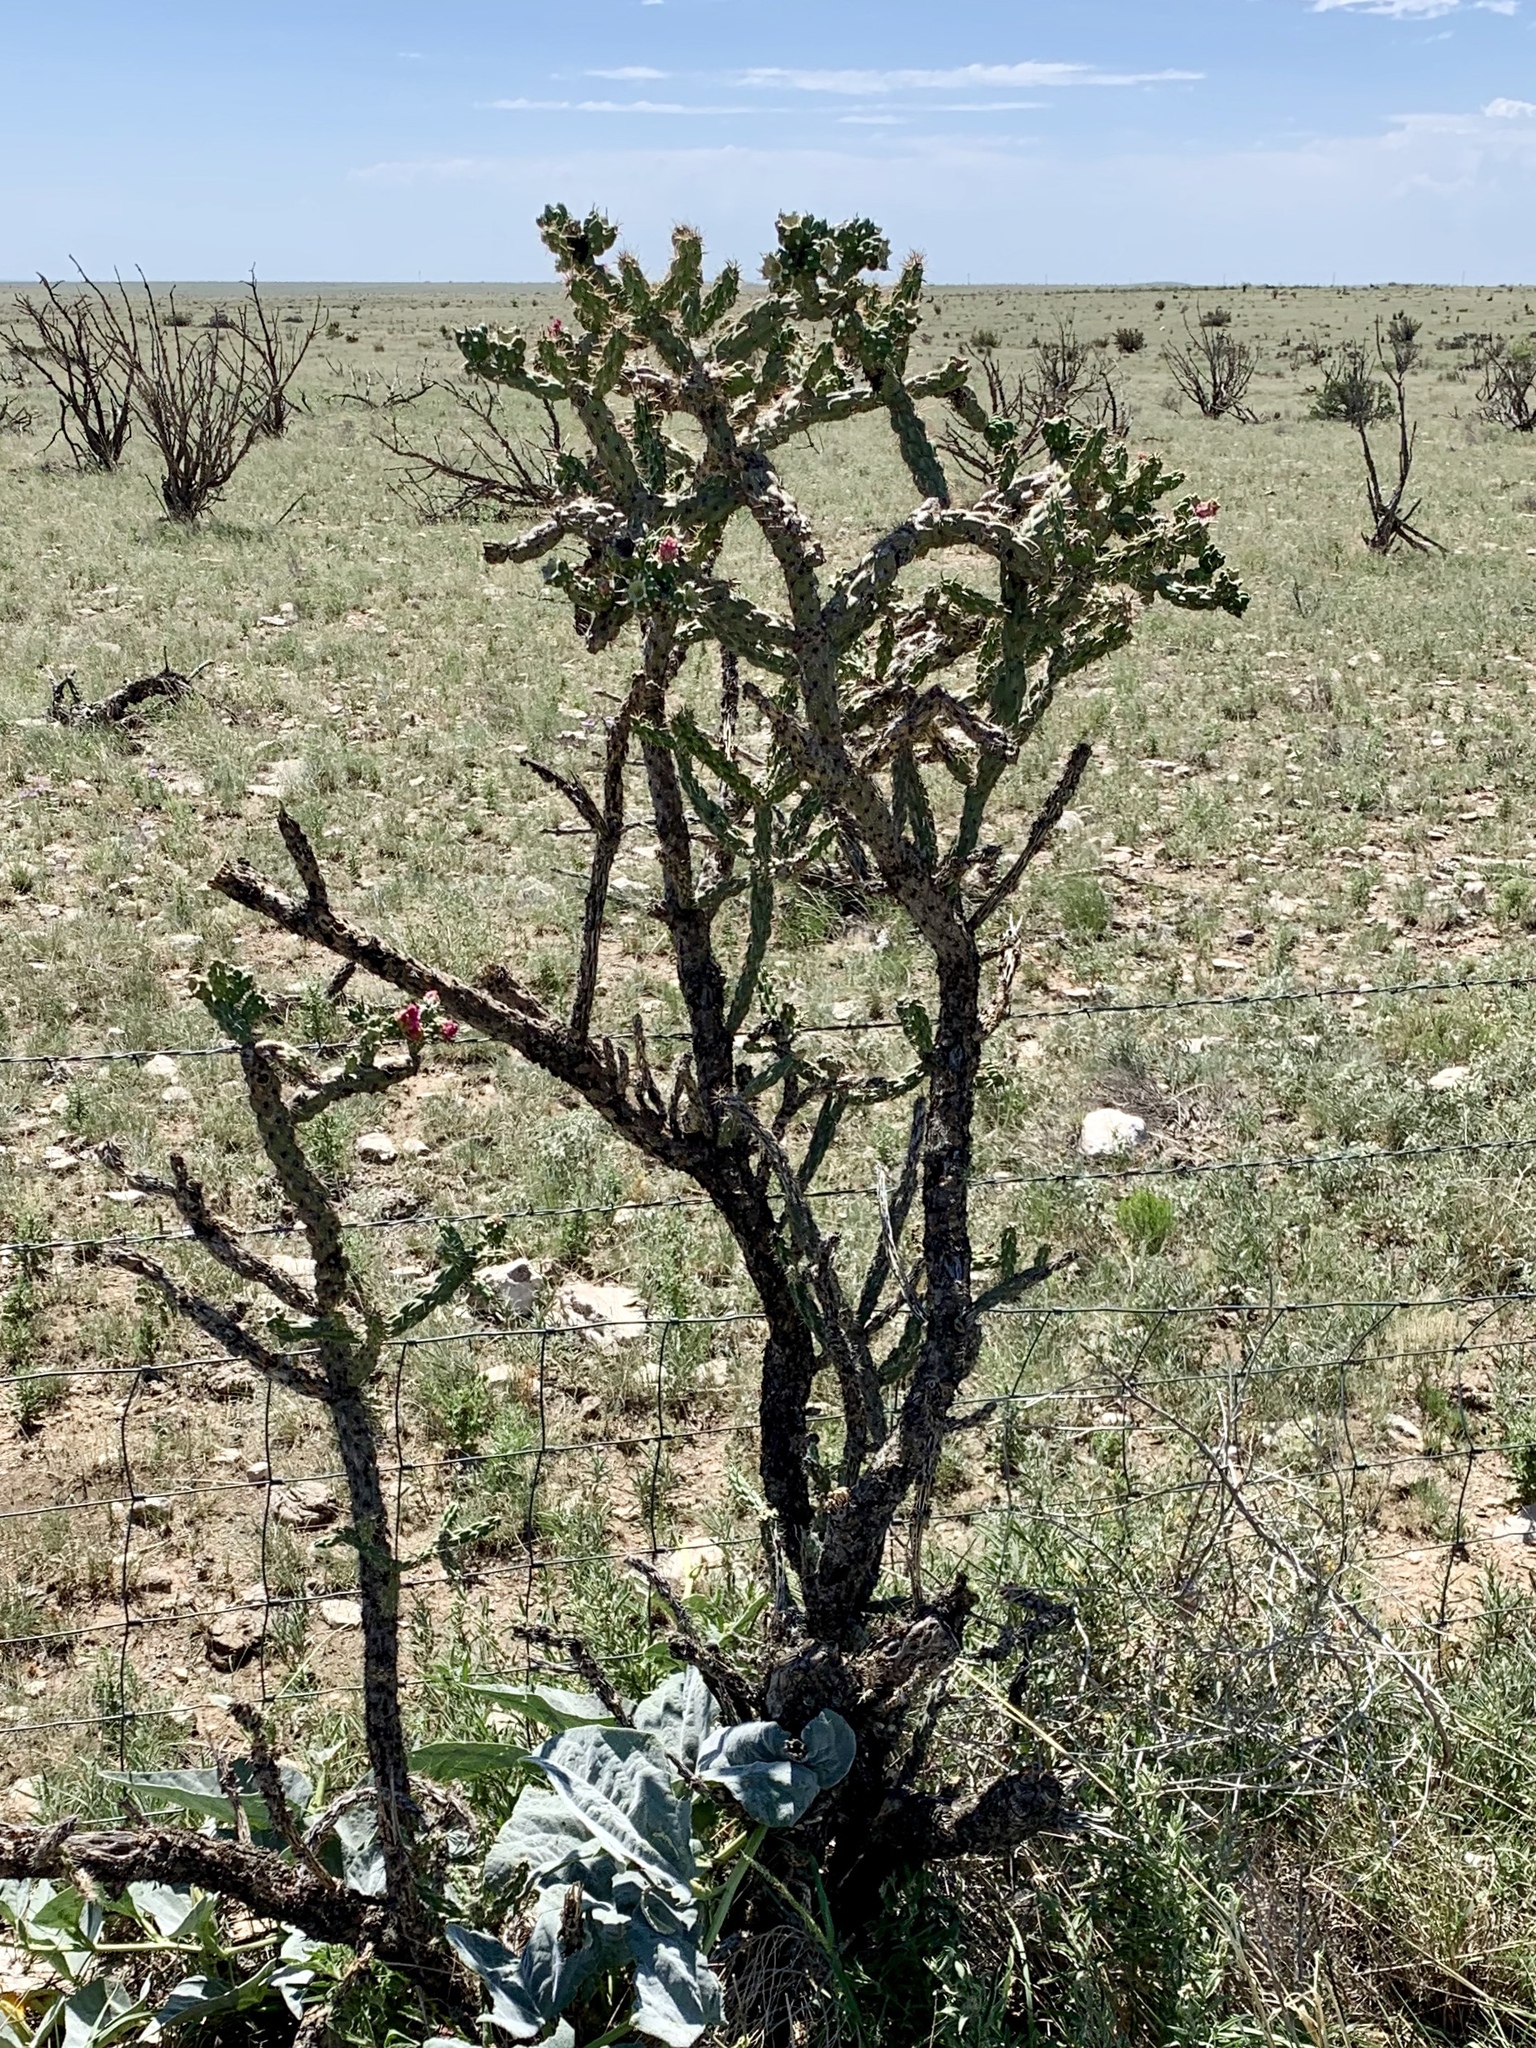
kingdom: Plantae
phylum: Tracheophyta
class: Magnoliopsida
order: Caryophyllales
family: Cactaceae
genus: Cylindropuntia
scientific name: Cylindropuntia imbricata
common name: Candelabrum cactus
